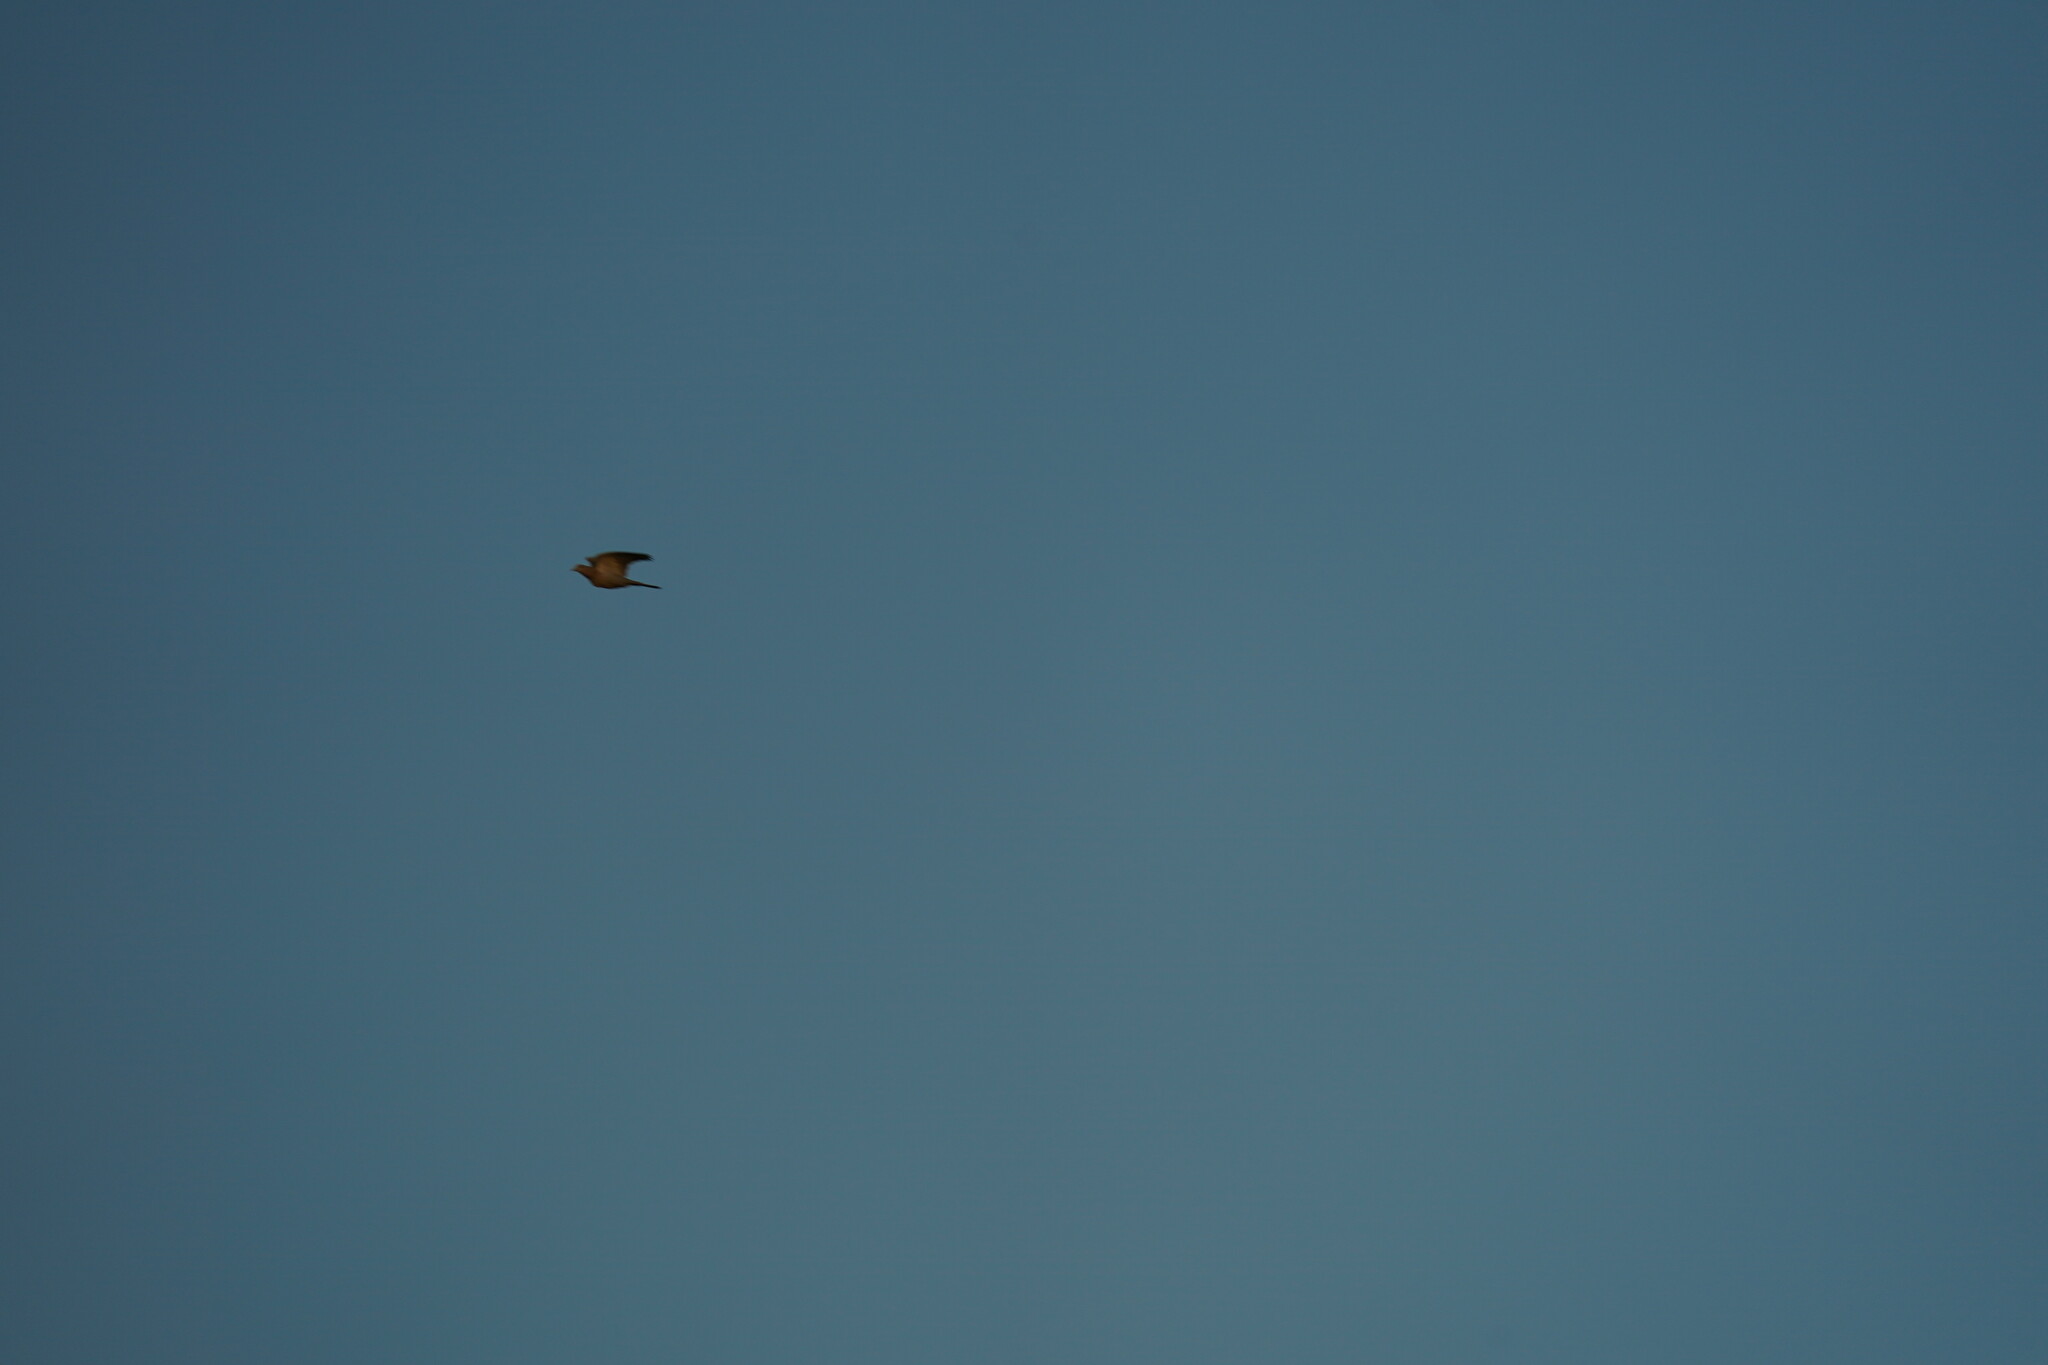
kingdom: Animalia
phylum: Chordata
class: Aves
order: Columbiformes
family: Columbidae
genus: Zenaida
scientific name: Zenaida macroura
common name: Mourning dove
